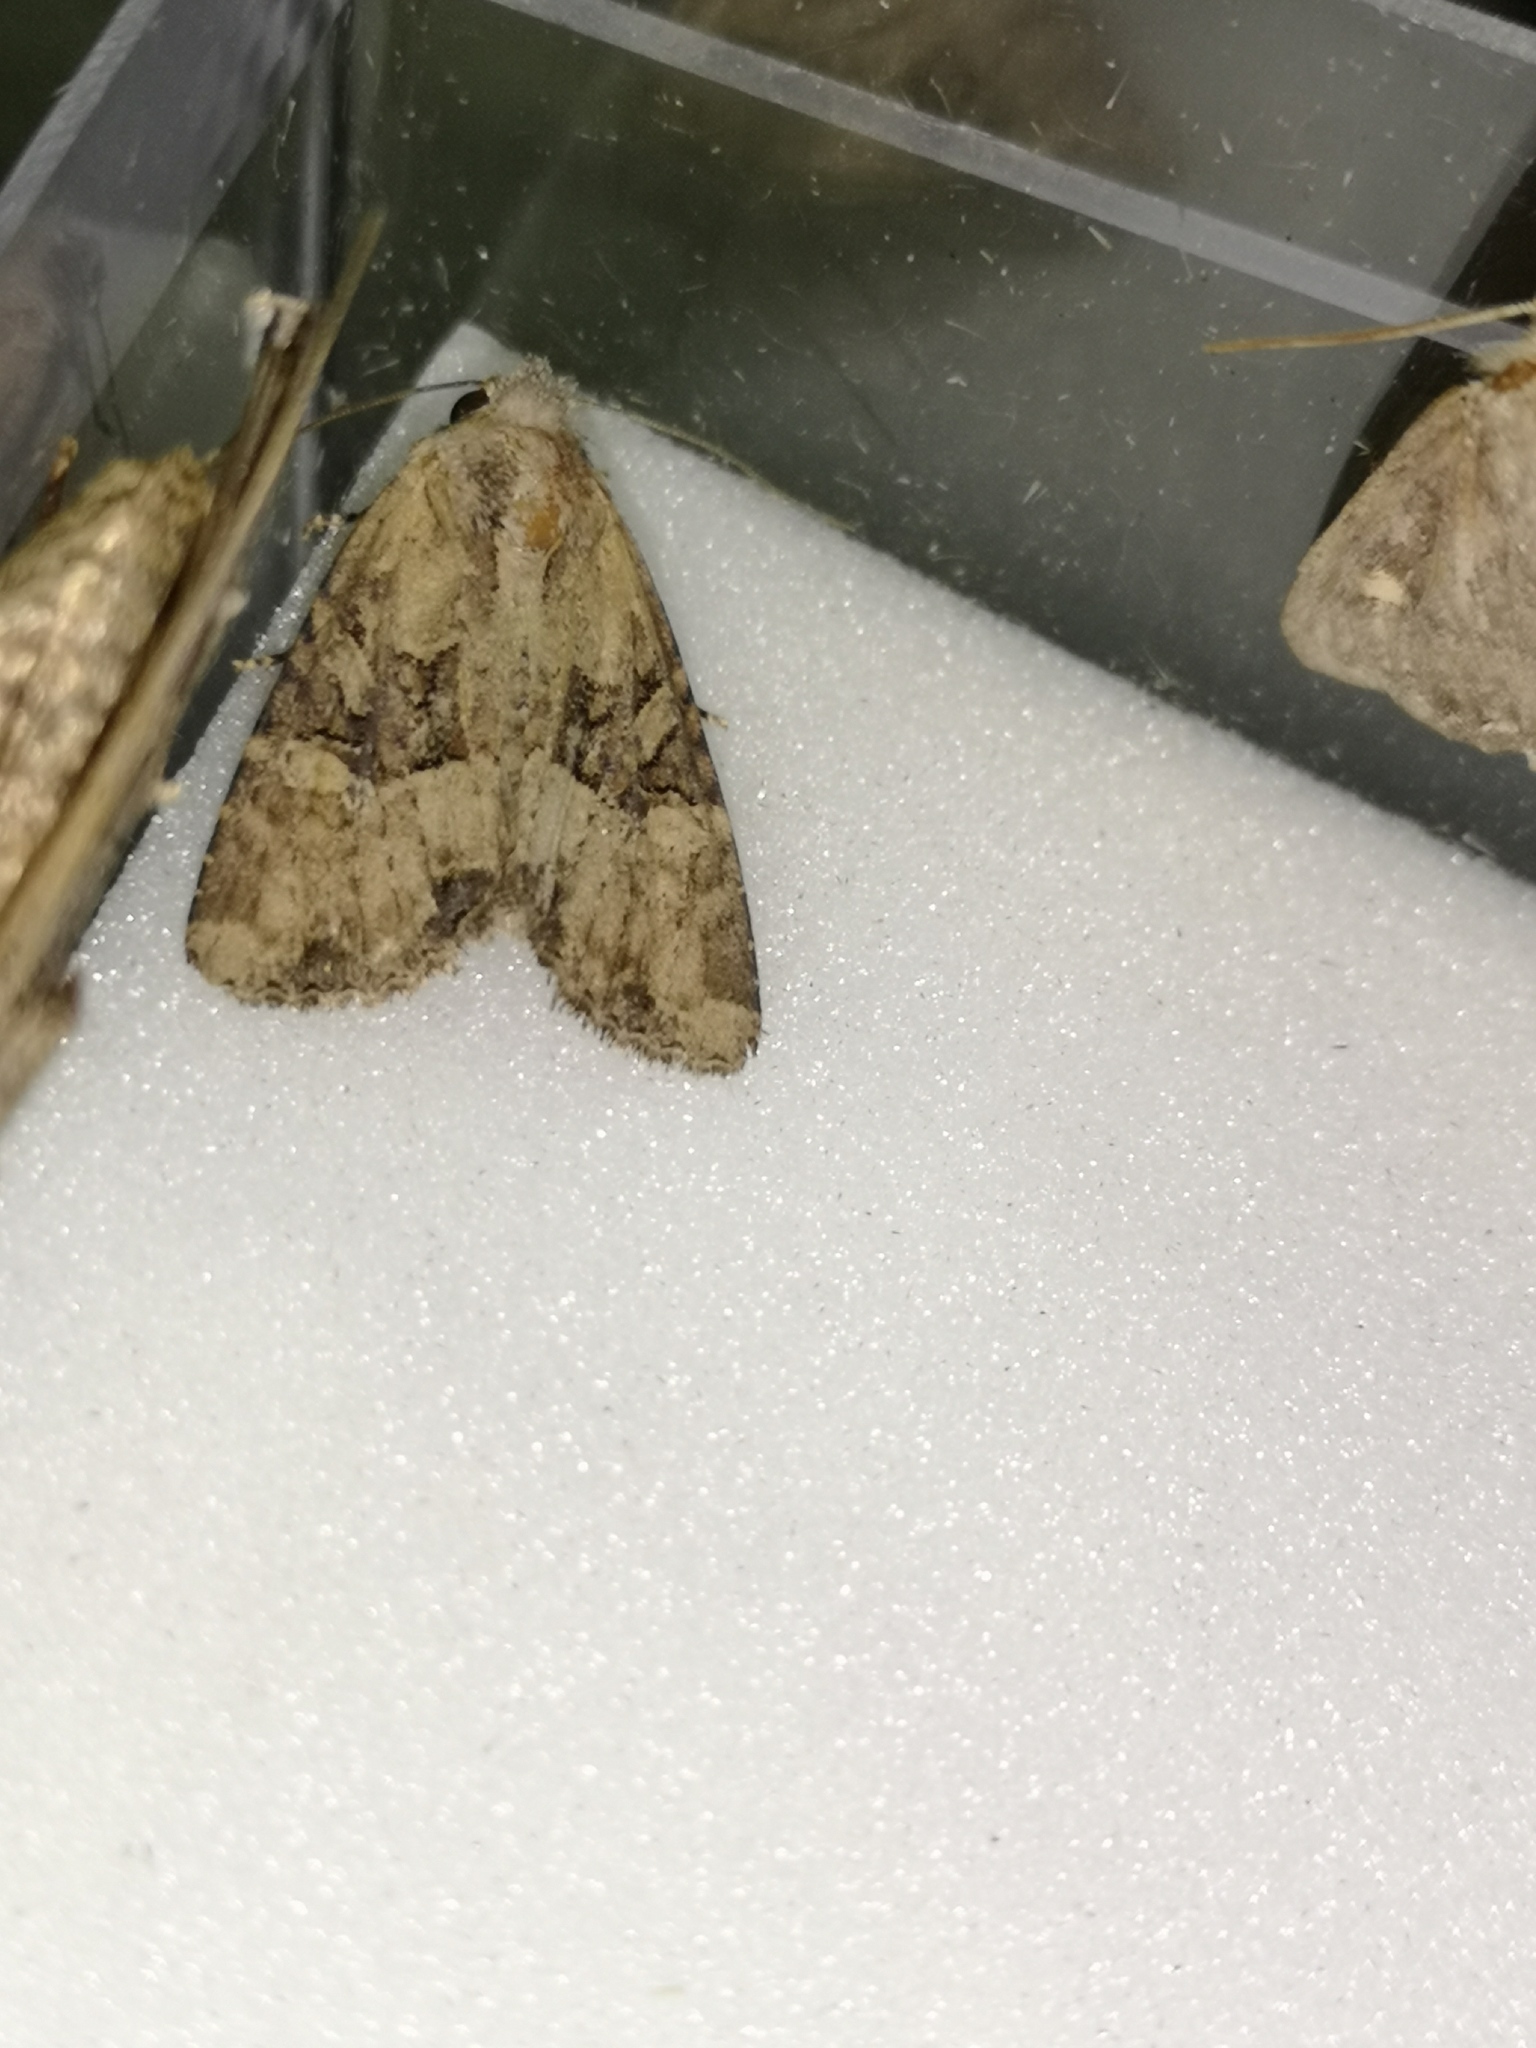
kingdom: Animalia
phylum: Arthropoda
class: Insecta
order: Lepidoptera
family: Noctuidae
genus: Mesapamea
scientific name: Mesapamea
